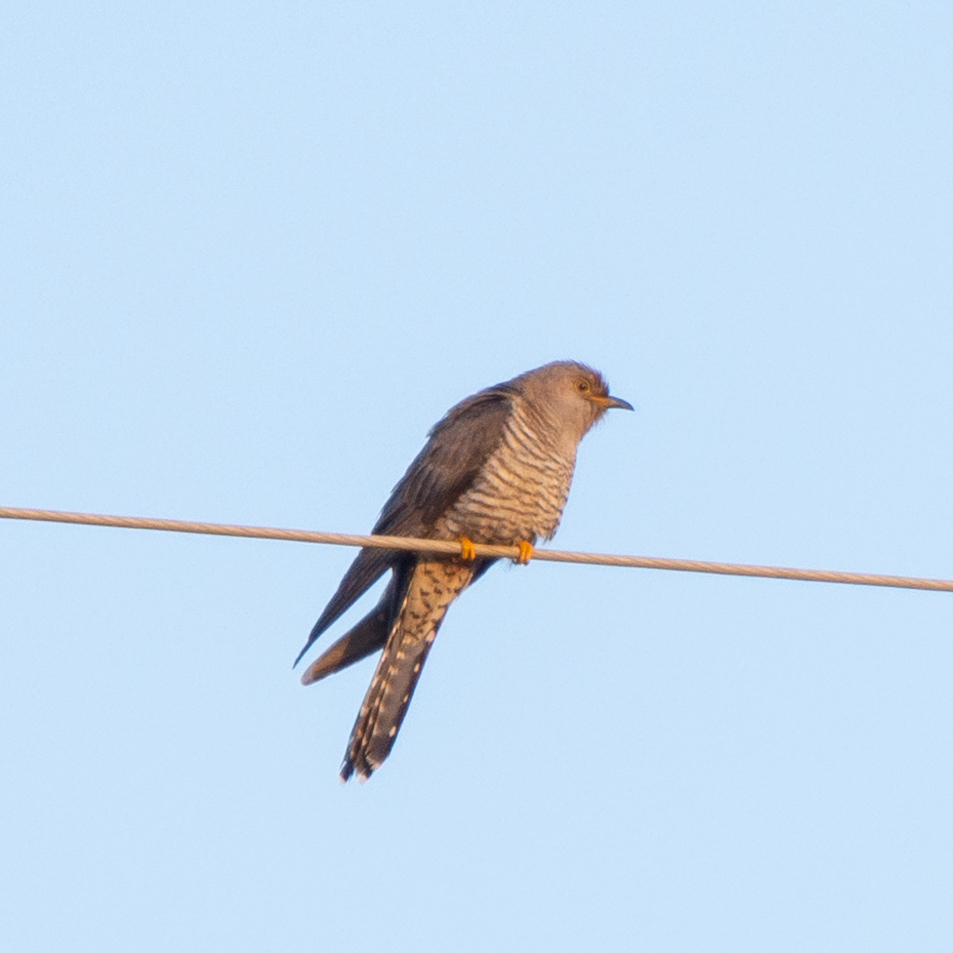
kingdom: Animalia
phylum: Chordata
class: Aves
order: Cuculiformes
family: Cuculidae
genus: Cuculus
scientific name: Cuculus canorus
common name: Common cuckoo
